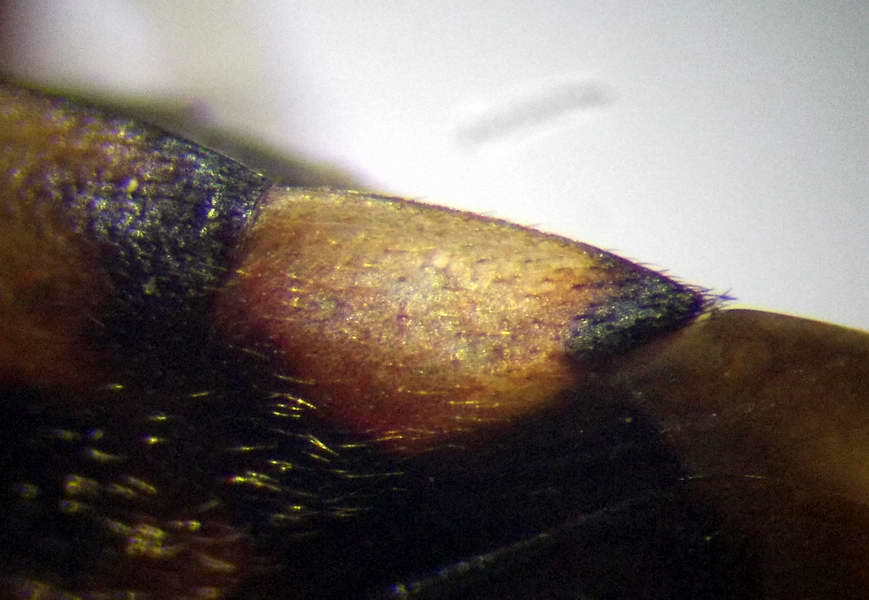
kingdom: Animalia
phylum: Arthropoda
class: Insecta
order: Hemiptera
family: Miridae
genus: Adelphocoris
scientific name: Adelphocoris seticornis
